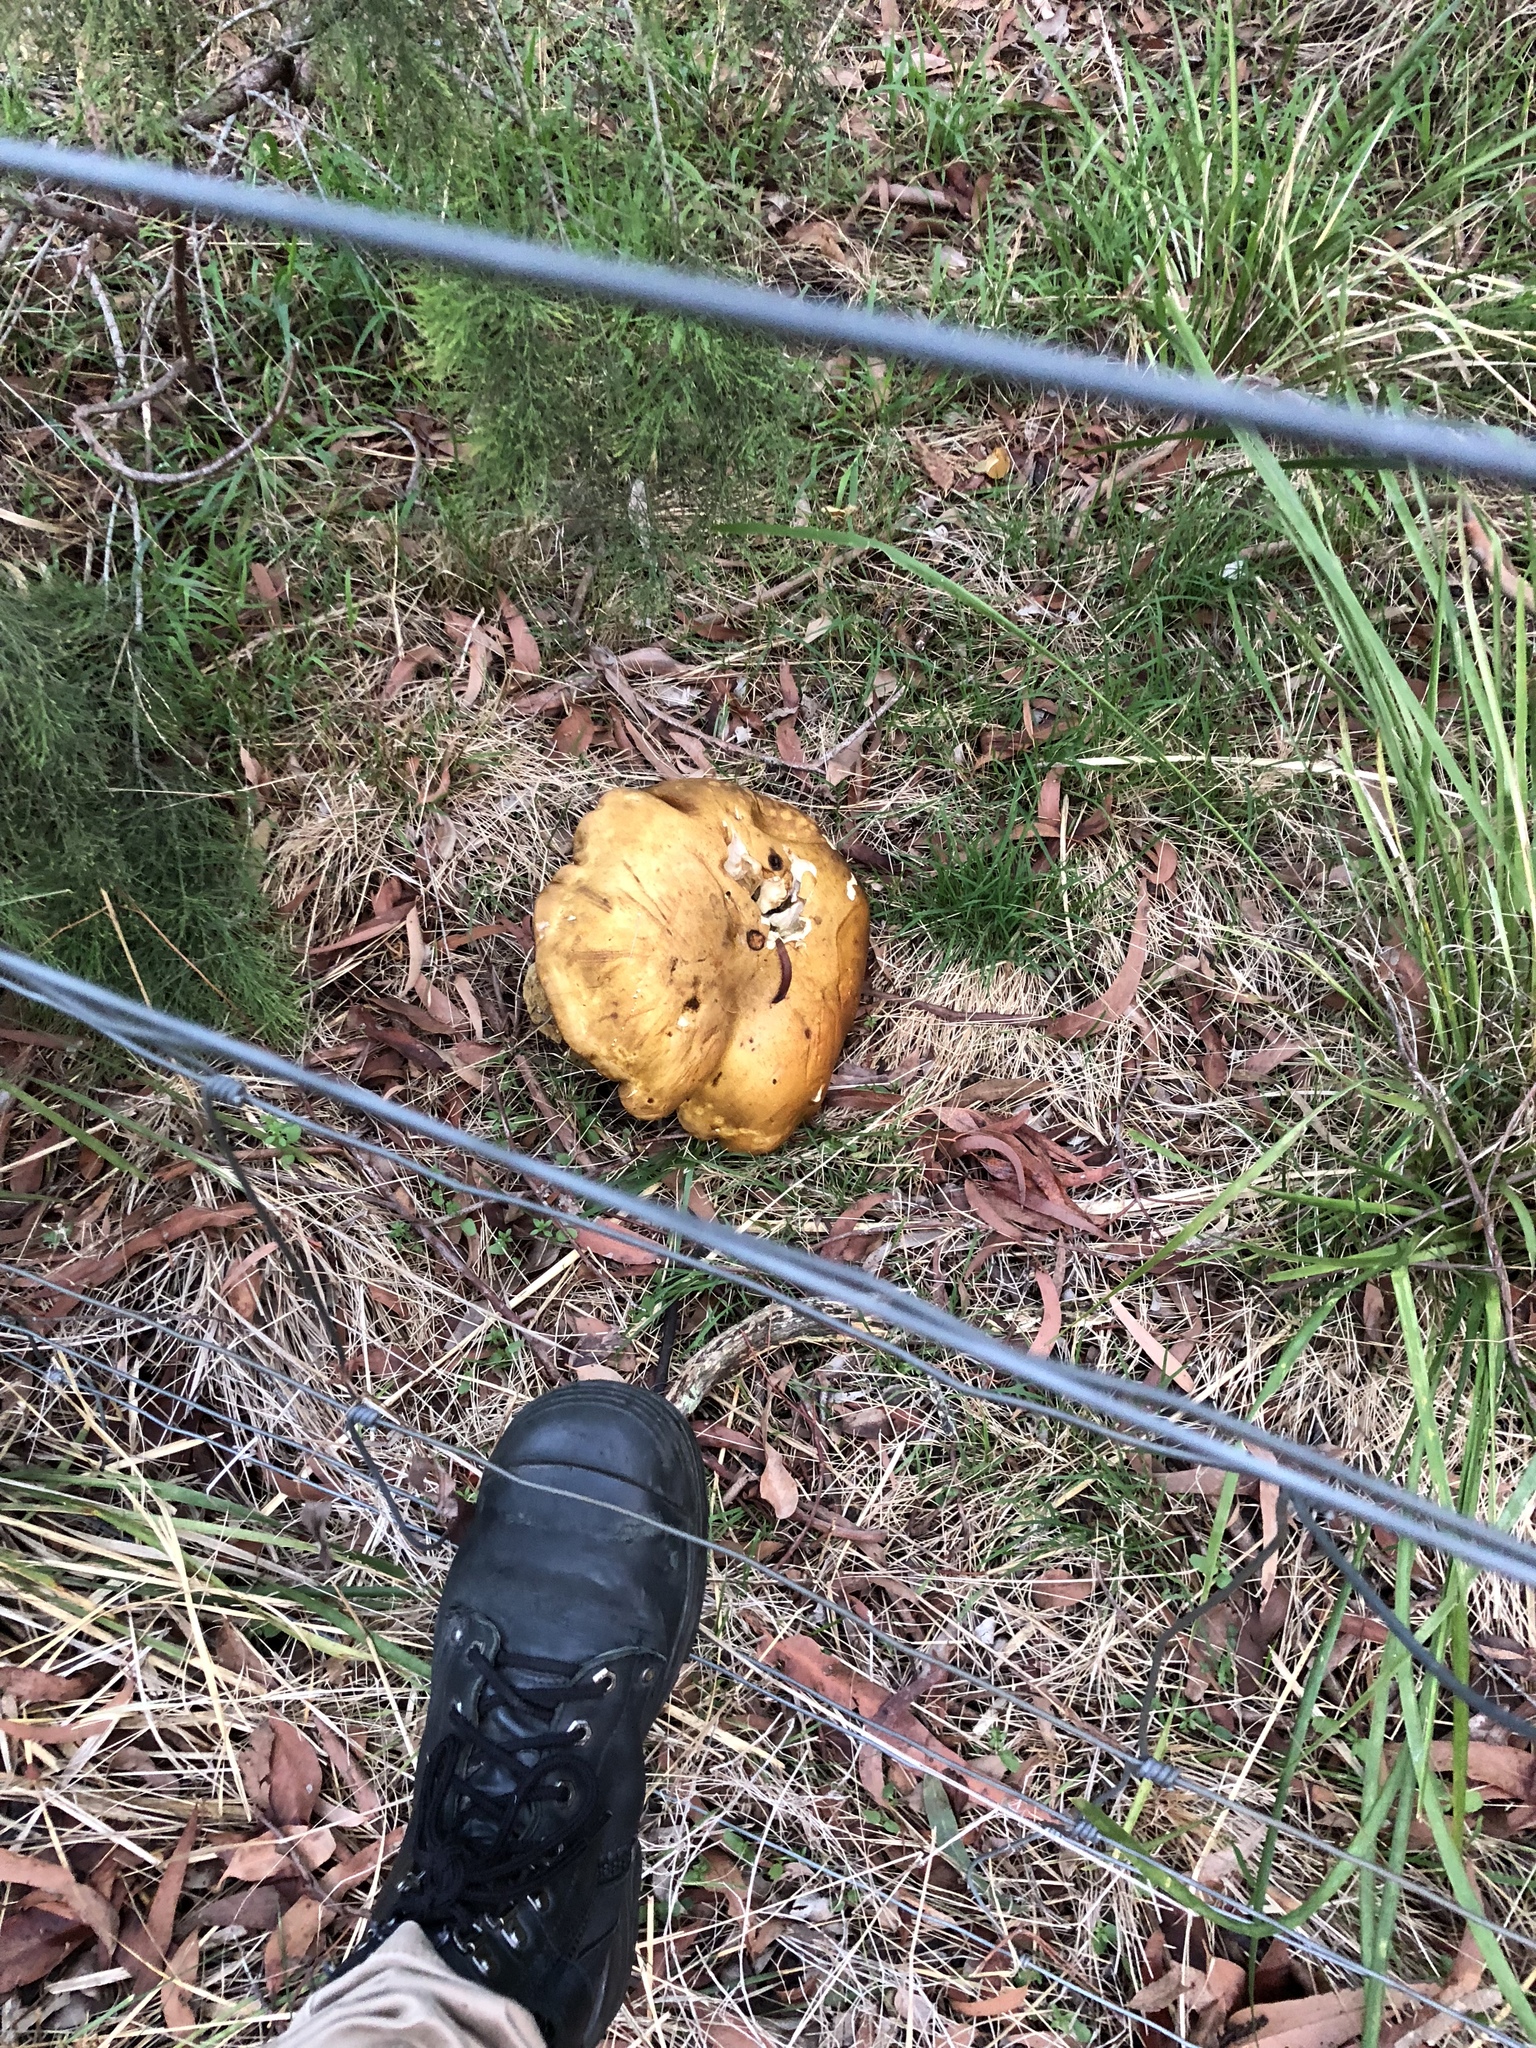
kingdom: Fungi
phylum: Basidiomycota
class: Agaricomycetes
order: Boletales
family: Boletinellaceae
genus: Phlebopus
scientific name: Phlebopus marginatus
